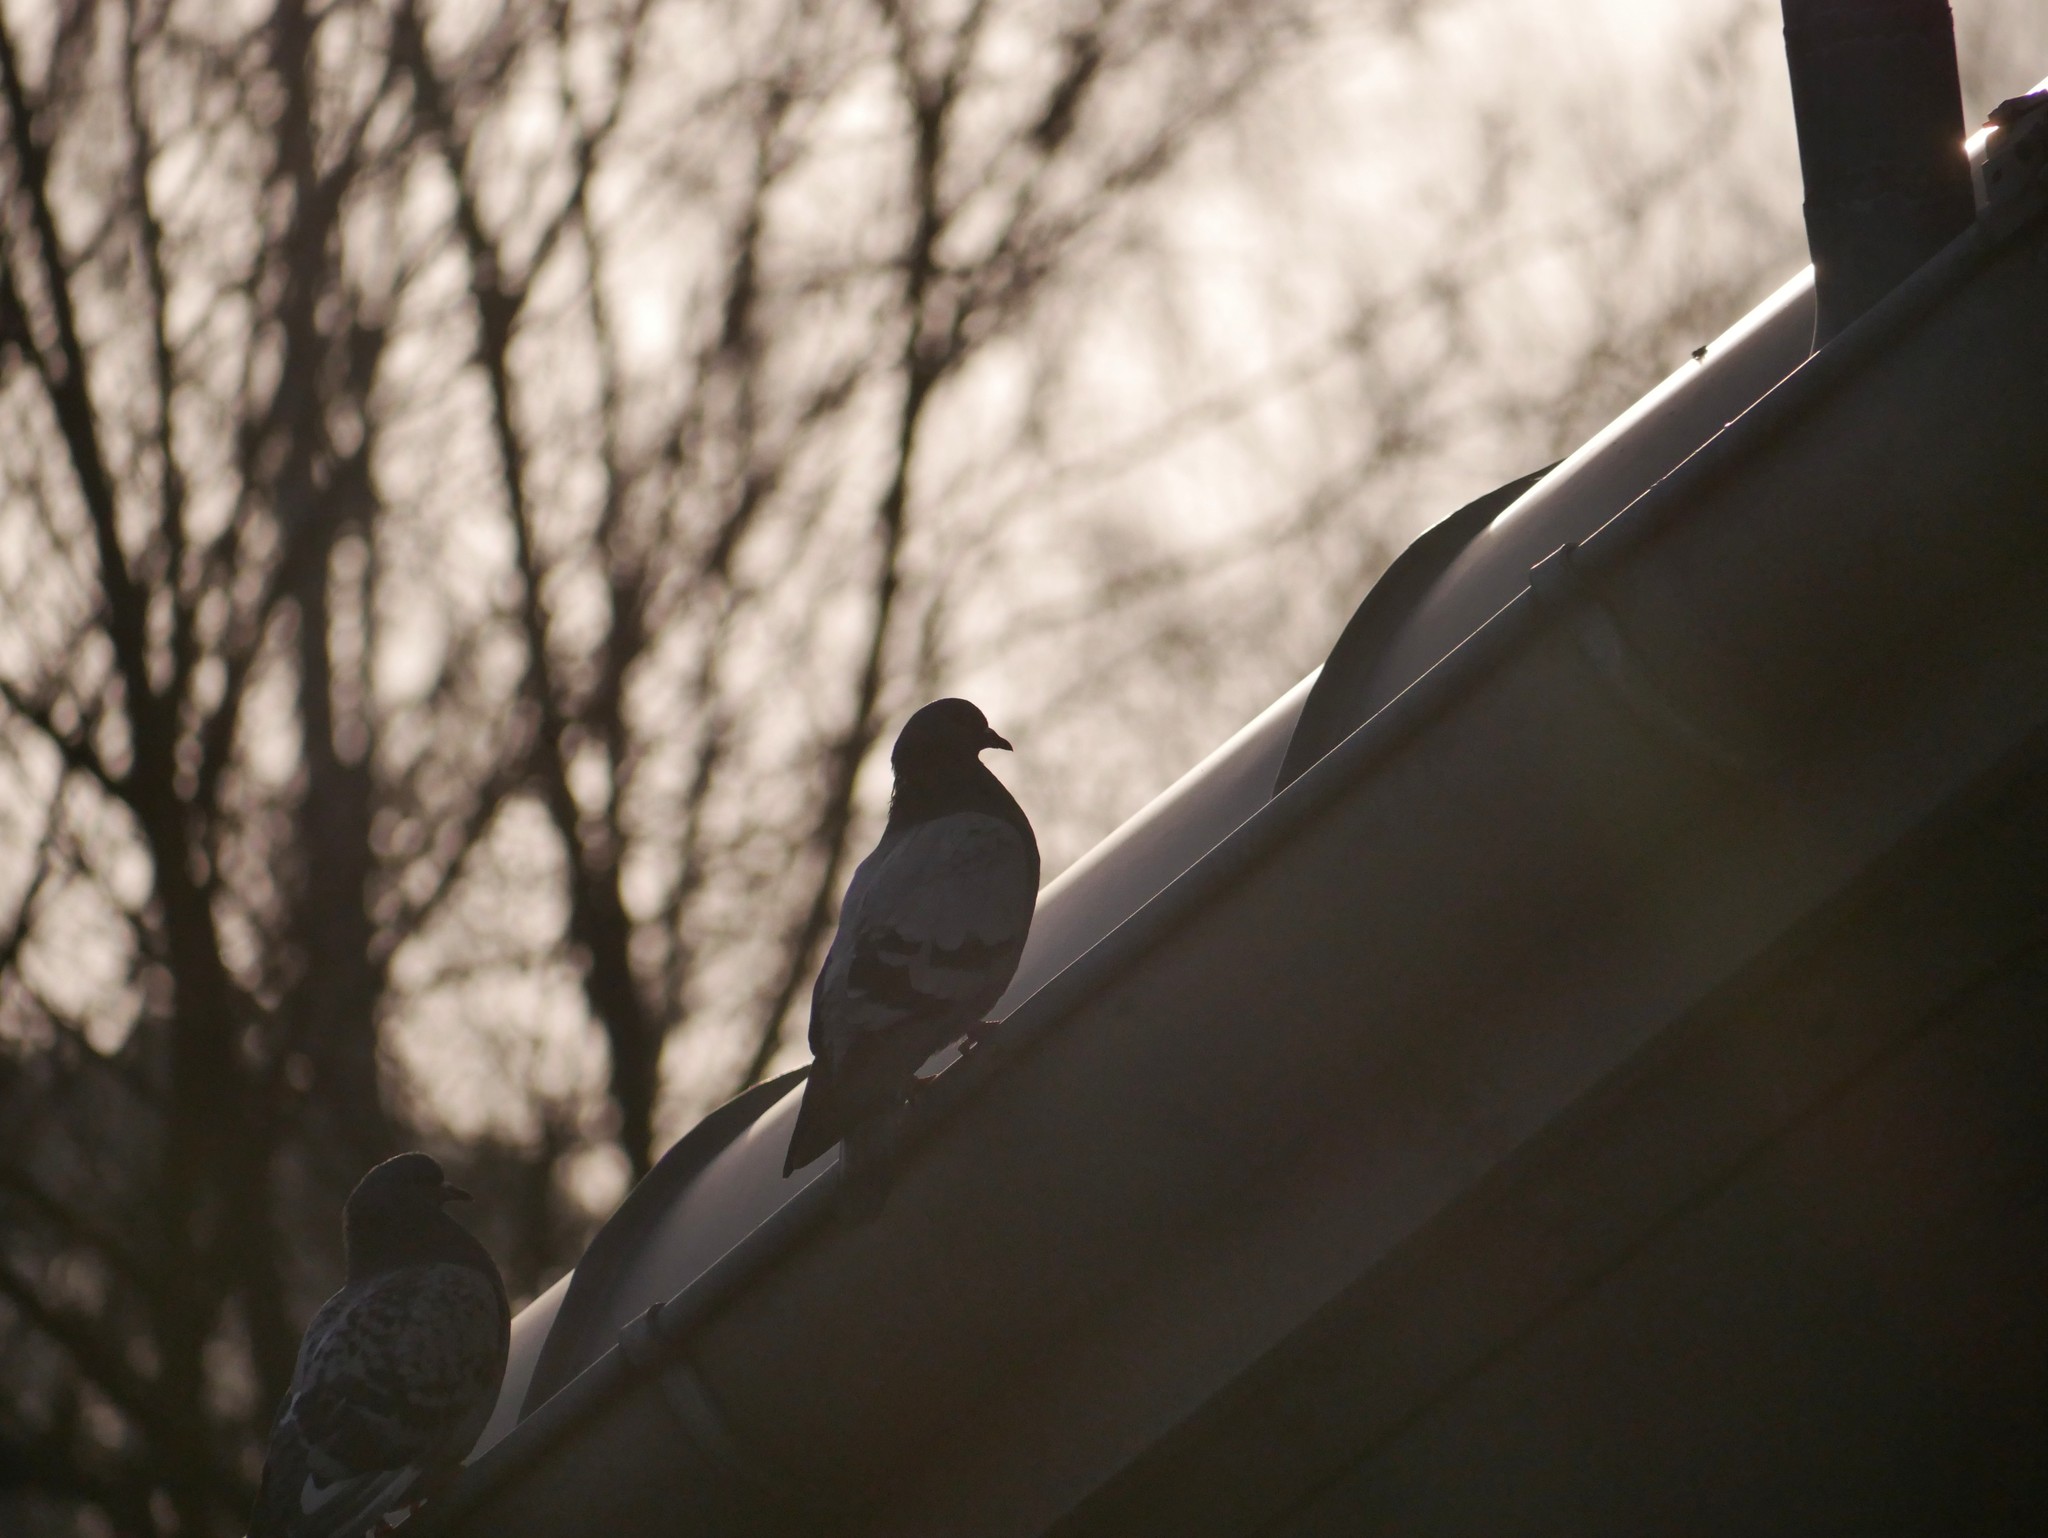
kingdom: Animalia
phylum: Chordata
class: Aves
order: Columbiformes
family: Columbidae
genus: Columba
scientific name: Columba livia
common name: Rock pigeon
